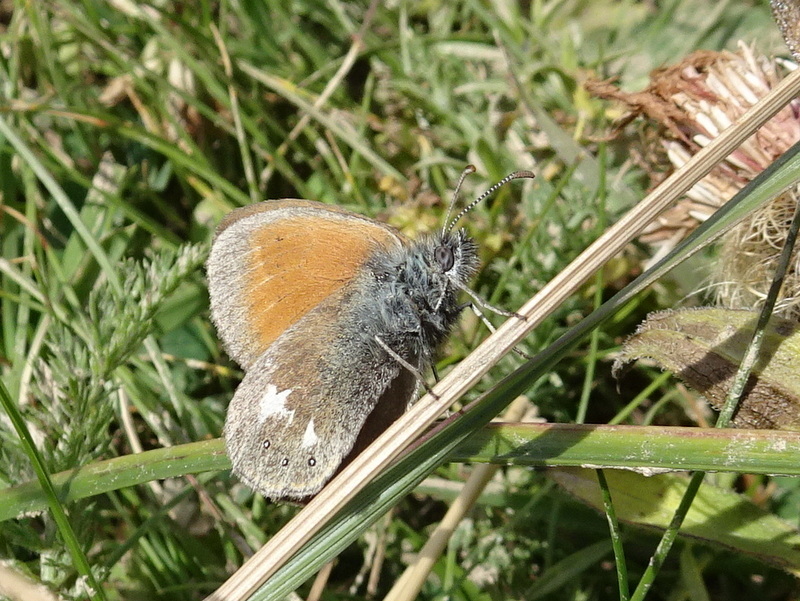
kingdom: Animalia
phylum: Arthropoda
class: Insecta
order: Lepidoptera
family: Nymphalidae
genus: Coenonympha
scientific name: Coenonympha iphis
